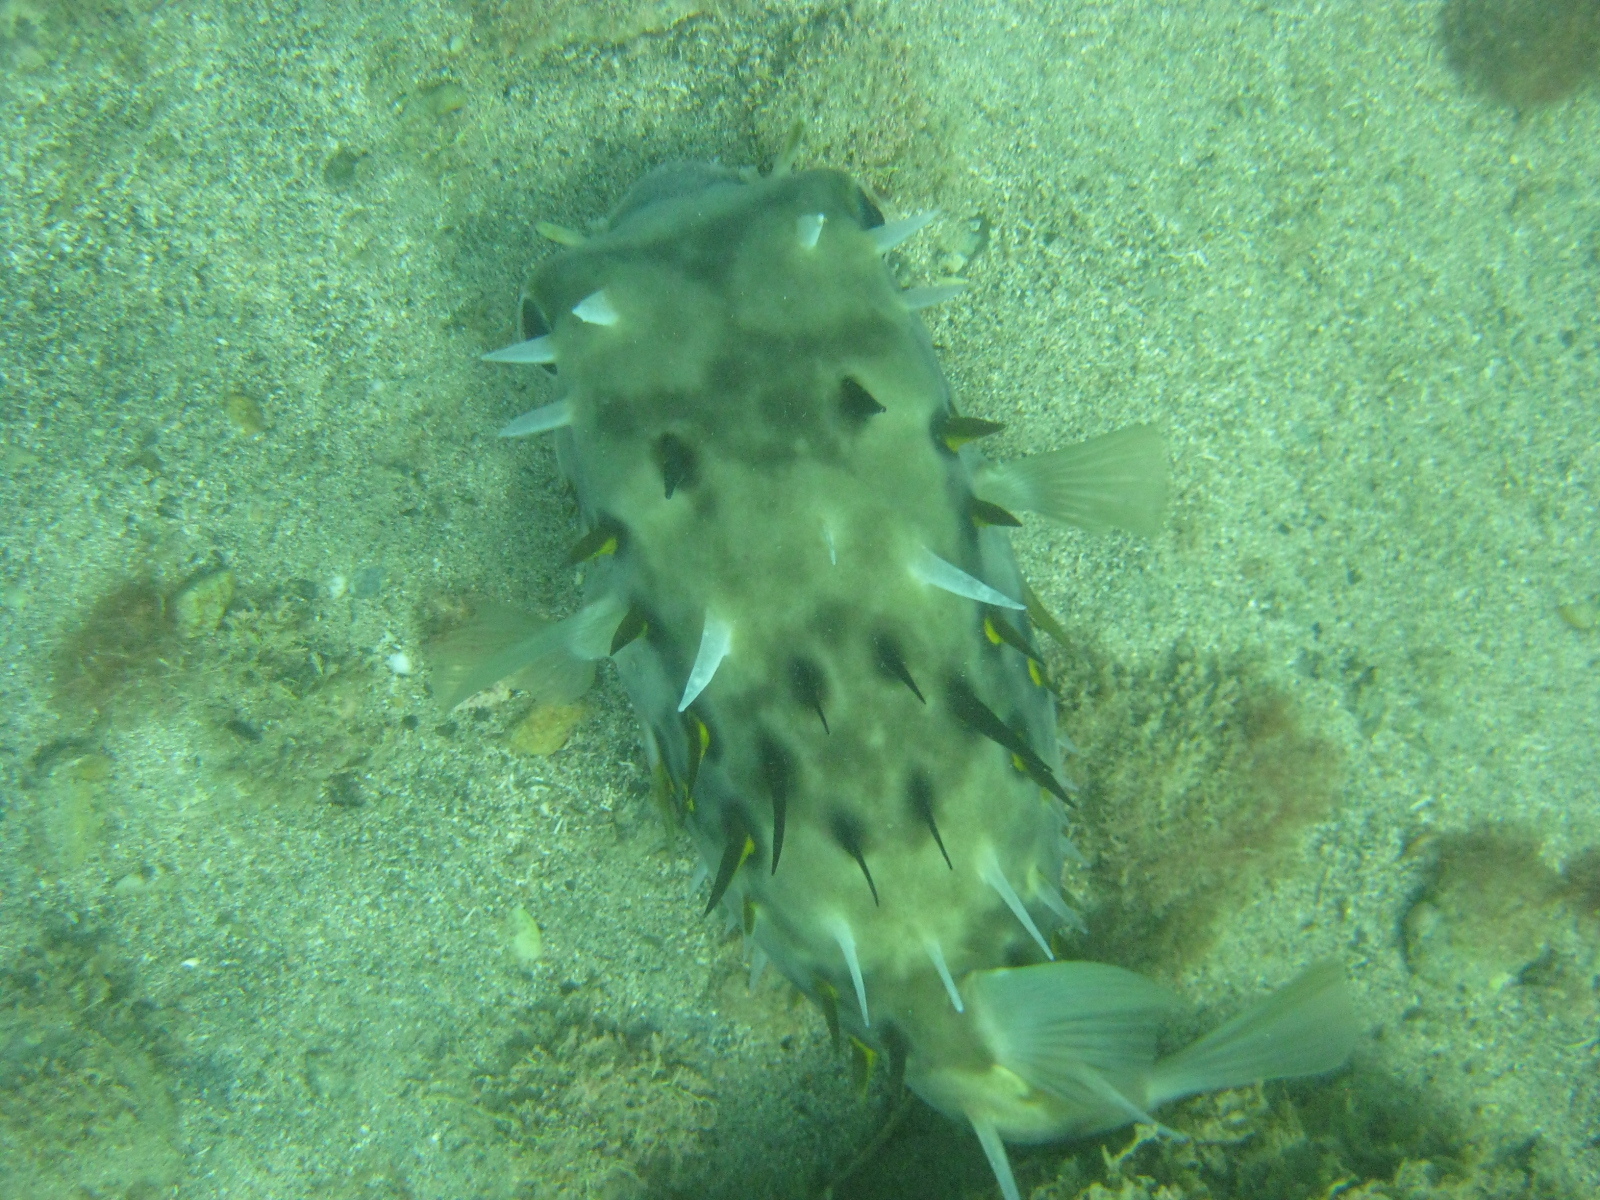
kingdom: Animalia
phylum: Chordata
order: Tetraodontiformes
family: Diodontidae
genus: Allomycterus
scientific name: Allomycterus pilatus
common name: No common name
